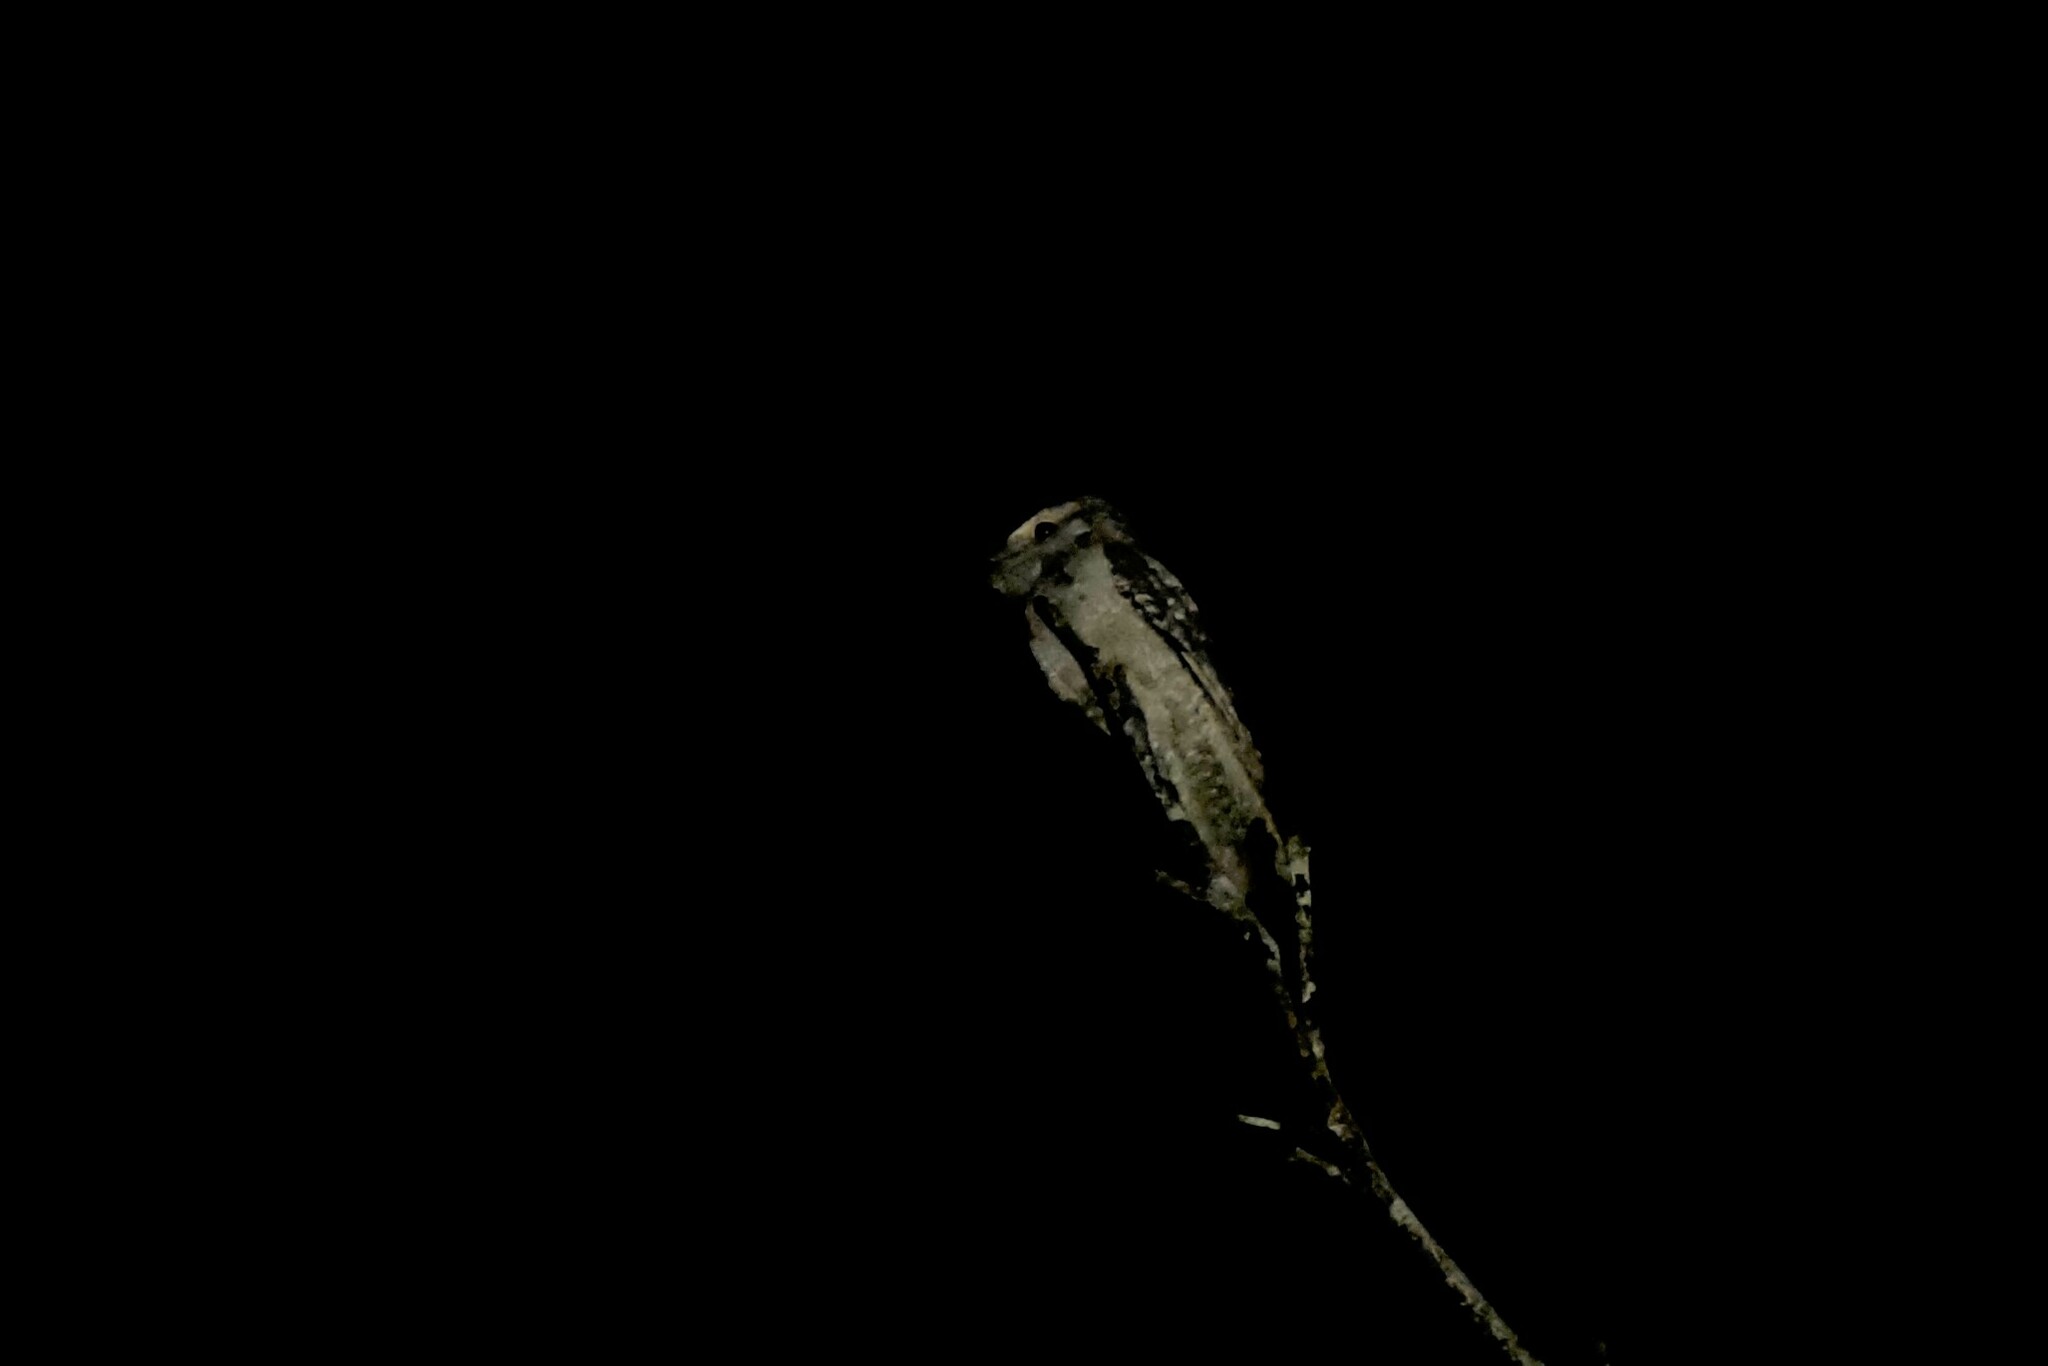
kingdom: Animalia
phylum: Chordata
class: Aves
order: Caprimulgiformes
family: Podargidae
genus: Podargus
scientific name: Podargus papuensis
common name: Papuan frogmouth
